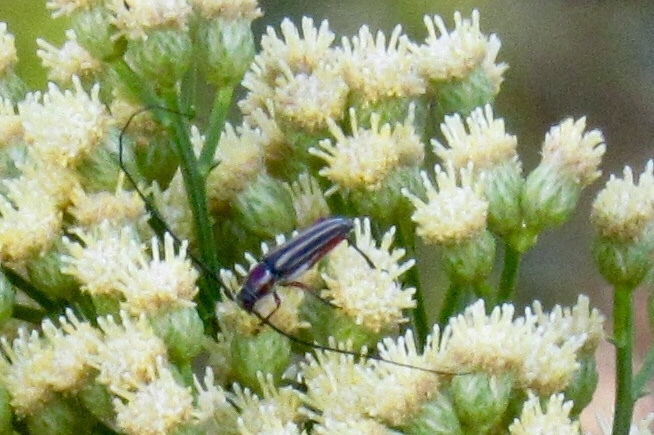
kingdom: Animalia
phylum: Arthropoda
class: Insecta
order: Coleoptera
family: Cerambycidae
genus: Sphaenothecus
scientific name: Sphaenothecus bilineatus
